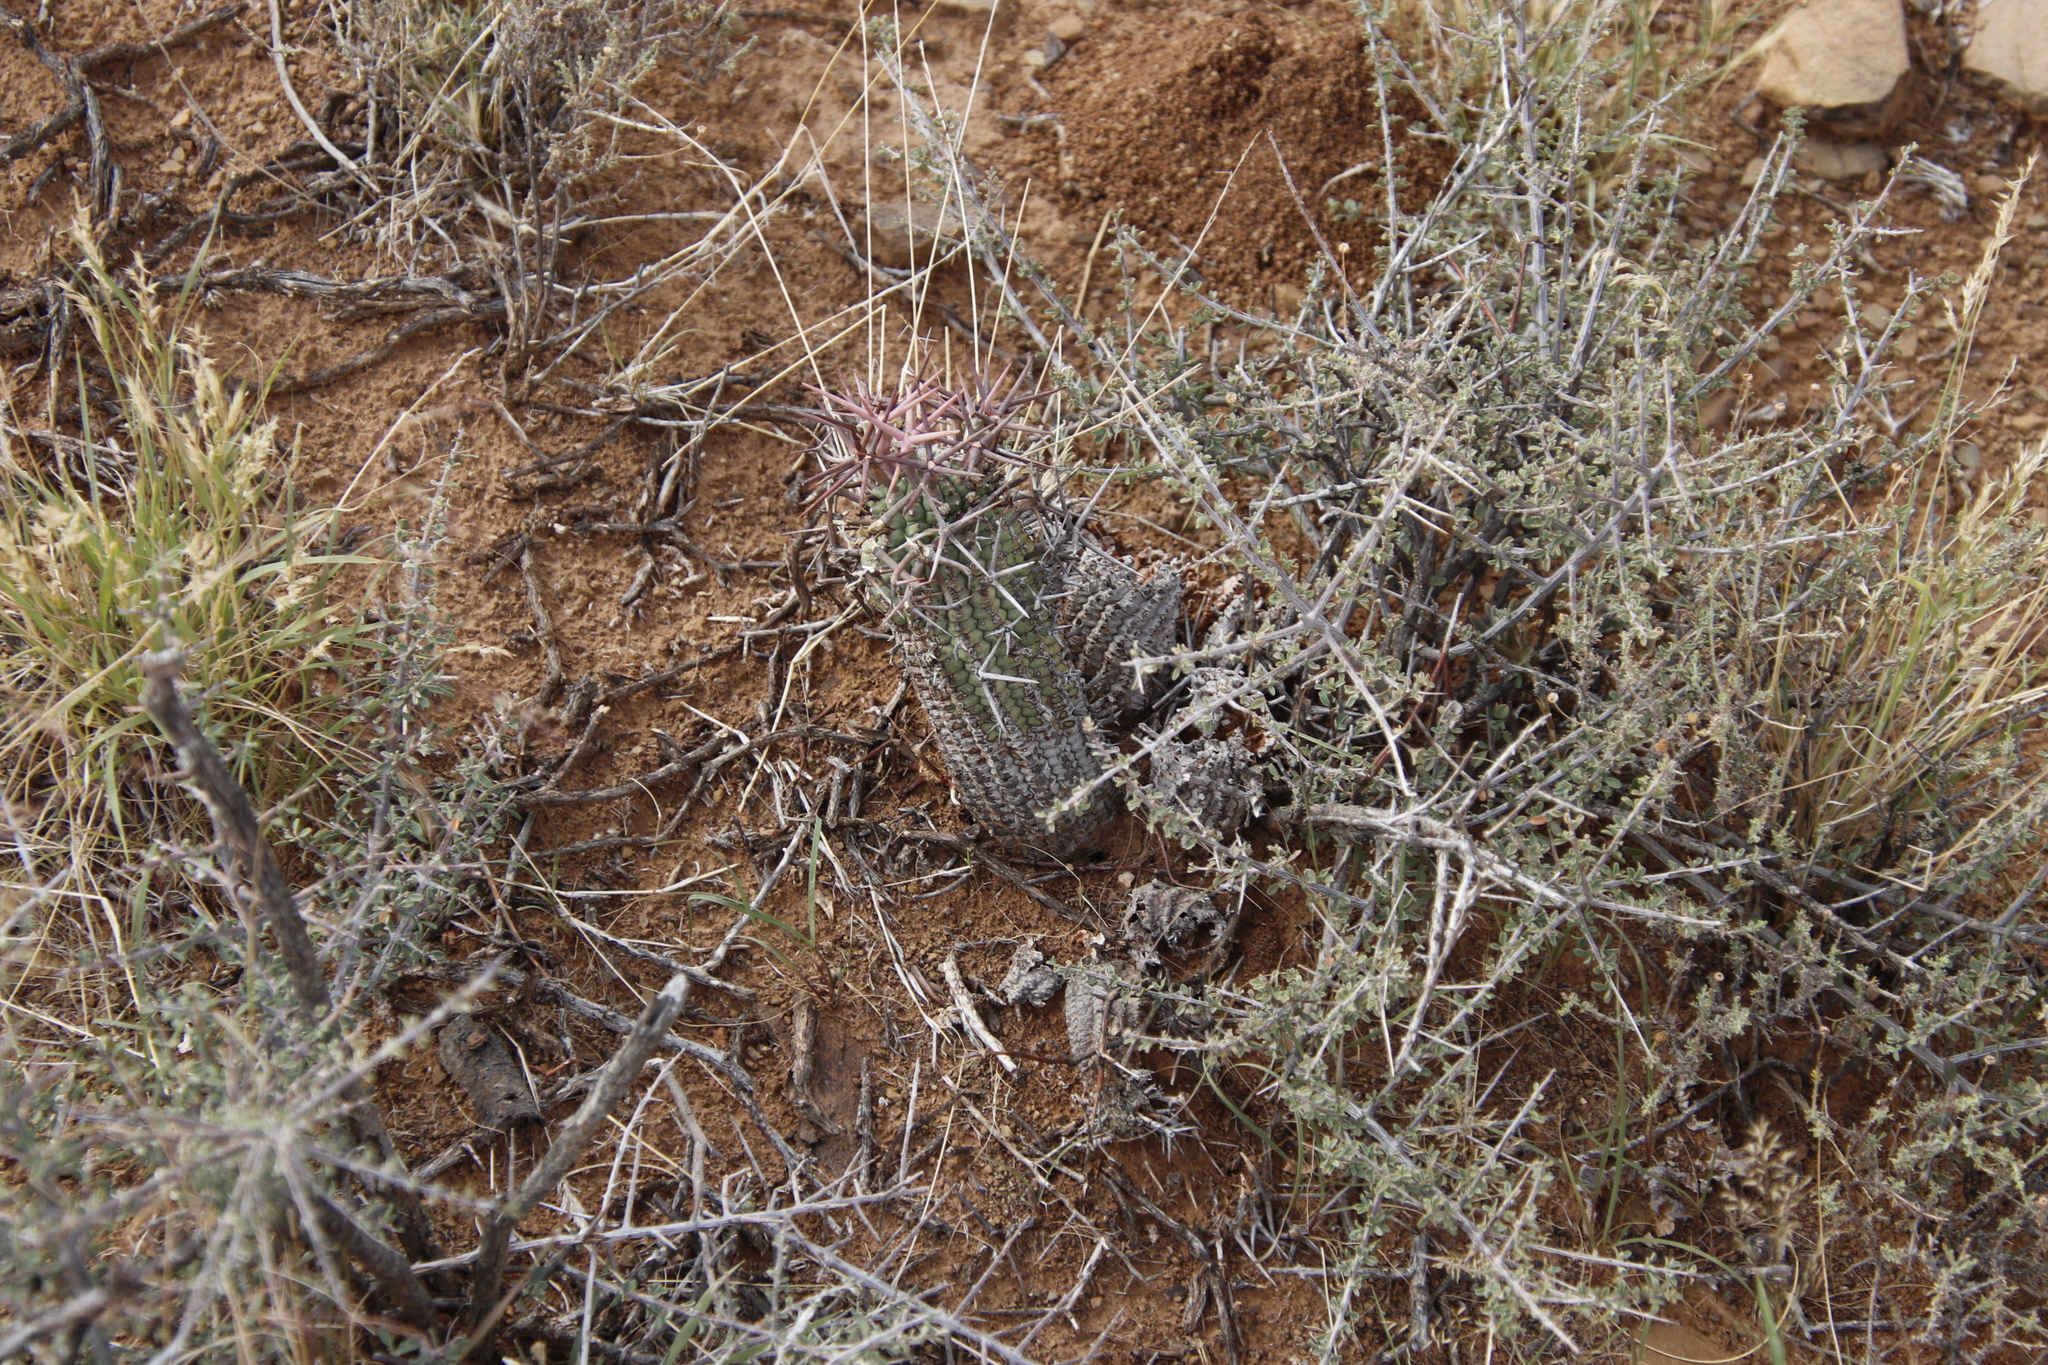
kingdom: Plantae
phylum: Tracheophyta
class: Magnoliopsida
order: Malpighiales
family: Euphorbiaceae
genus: Euphorbia
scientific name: Euphorbia stellispina
